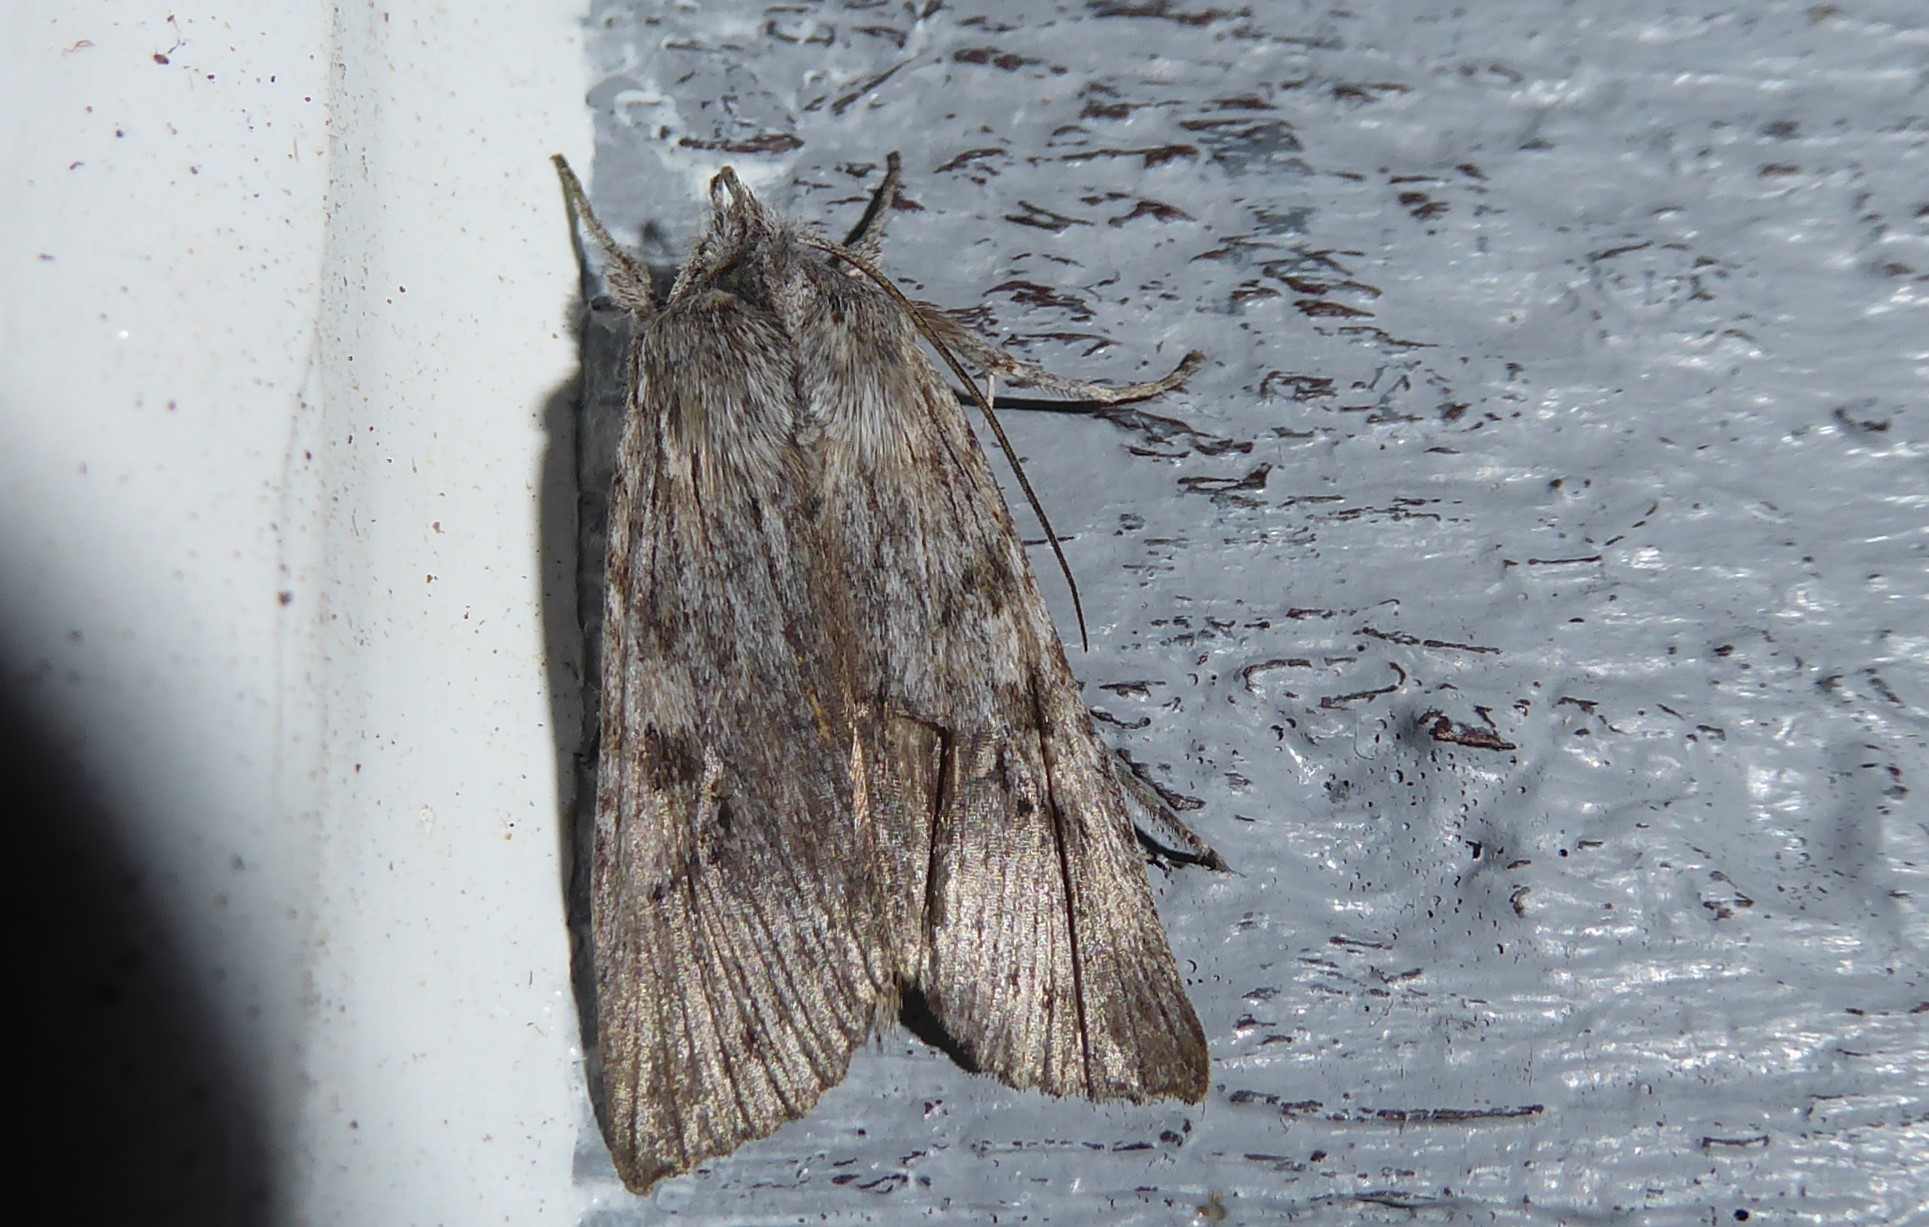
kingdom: Animalia
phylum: Arthropoda
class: Insecta
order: Lepidoptera
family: Noctuidae
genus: Physetica
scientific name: Physetica phricias
